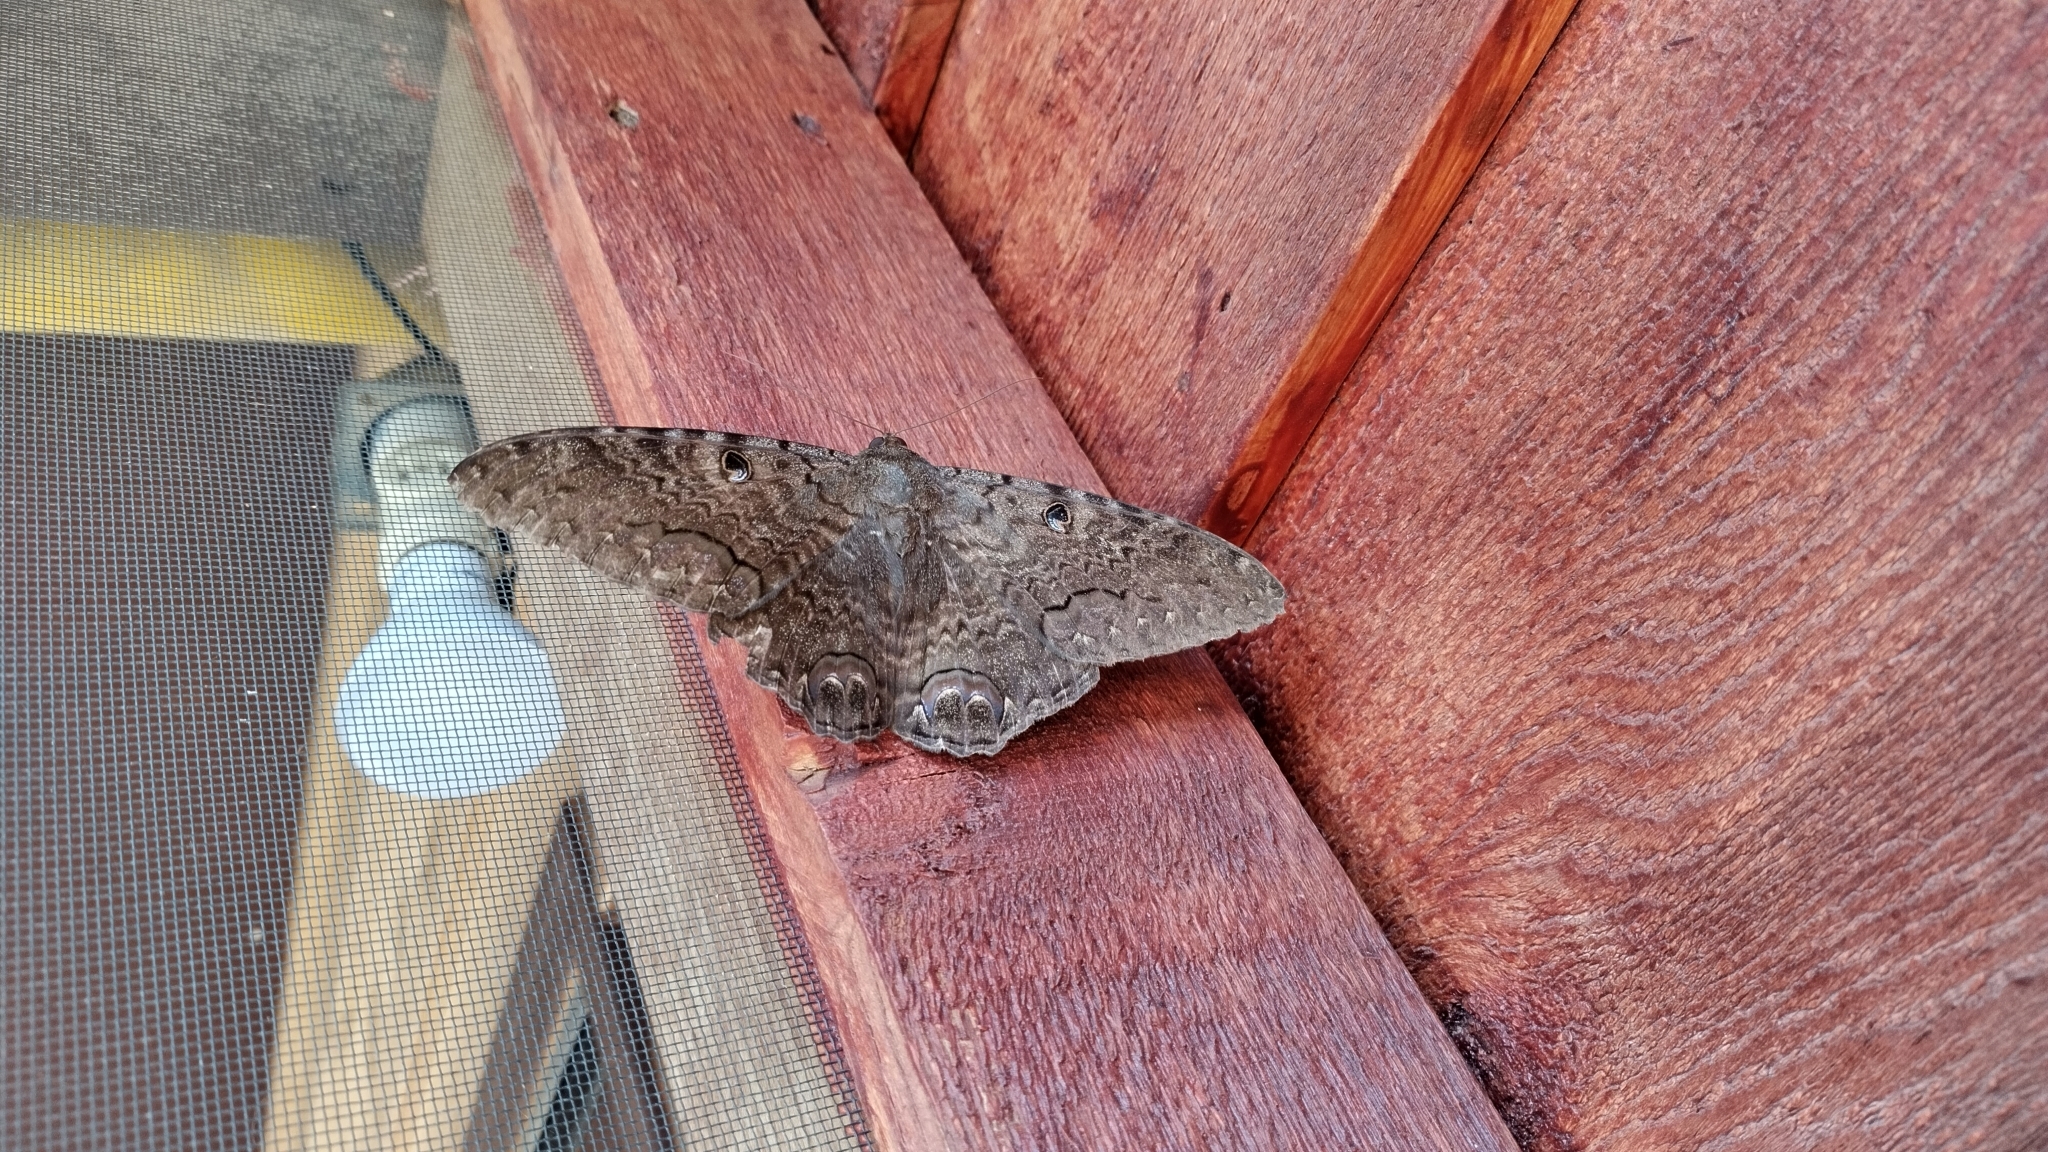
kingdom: Animalia
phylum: Arthropoda
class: Insecta
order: Lepidoptera
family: Erebidae
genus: Ascalapha
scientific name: Ascalapha odorata
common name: Black witch
